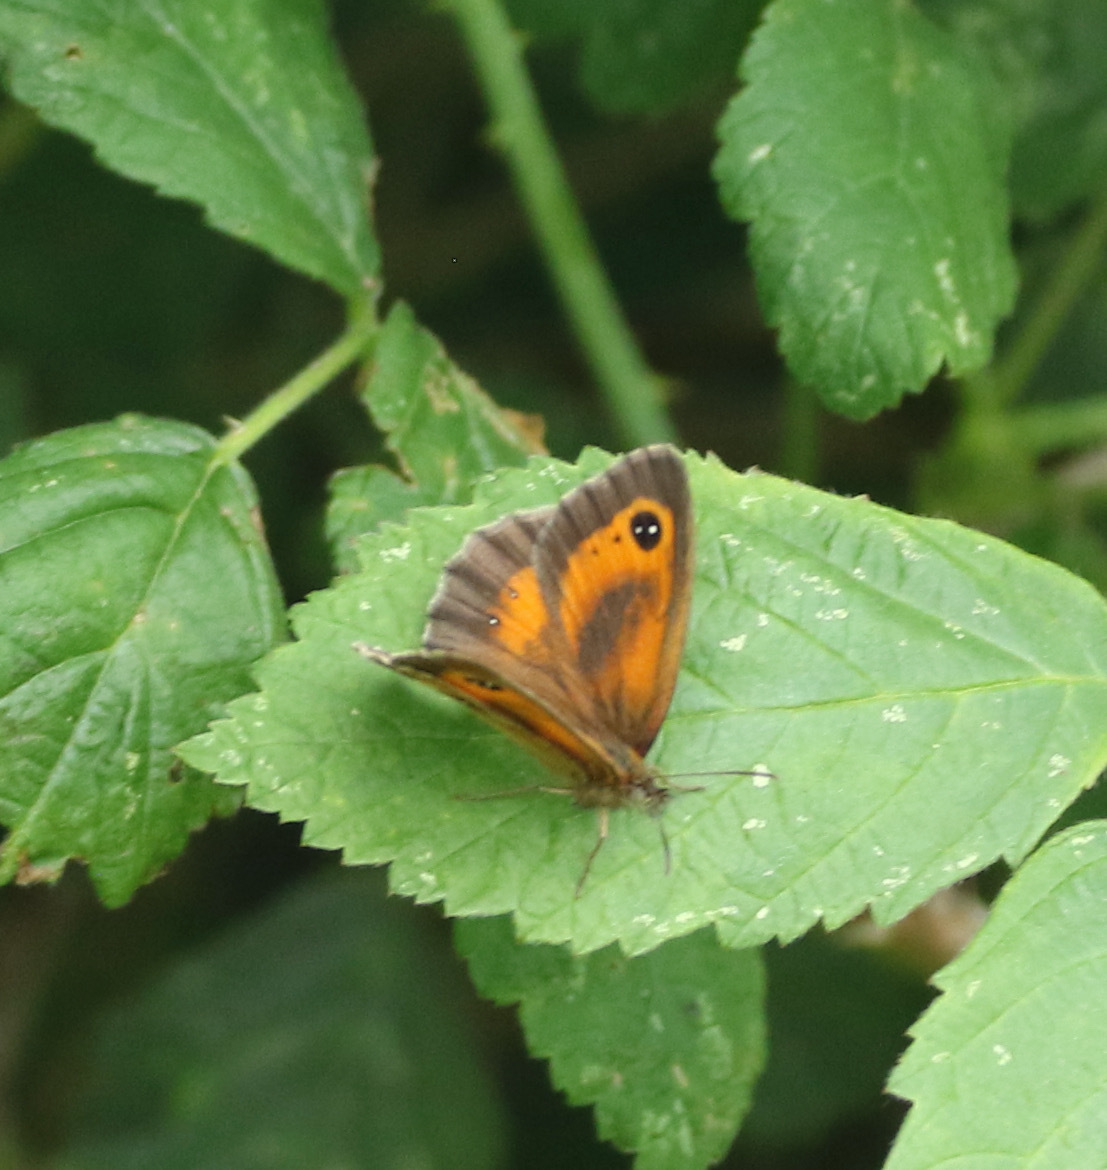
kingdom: Animalia
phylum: Arthropoda
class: Insecta
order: Lepidoptera
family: Nymphalidae
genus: Pyronia
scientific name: Pyronia tithonus
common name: Gatekeeper
